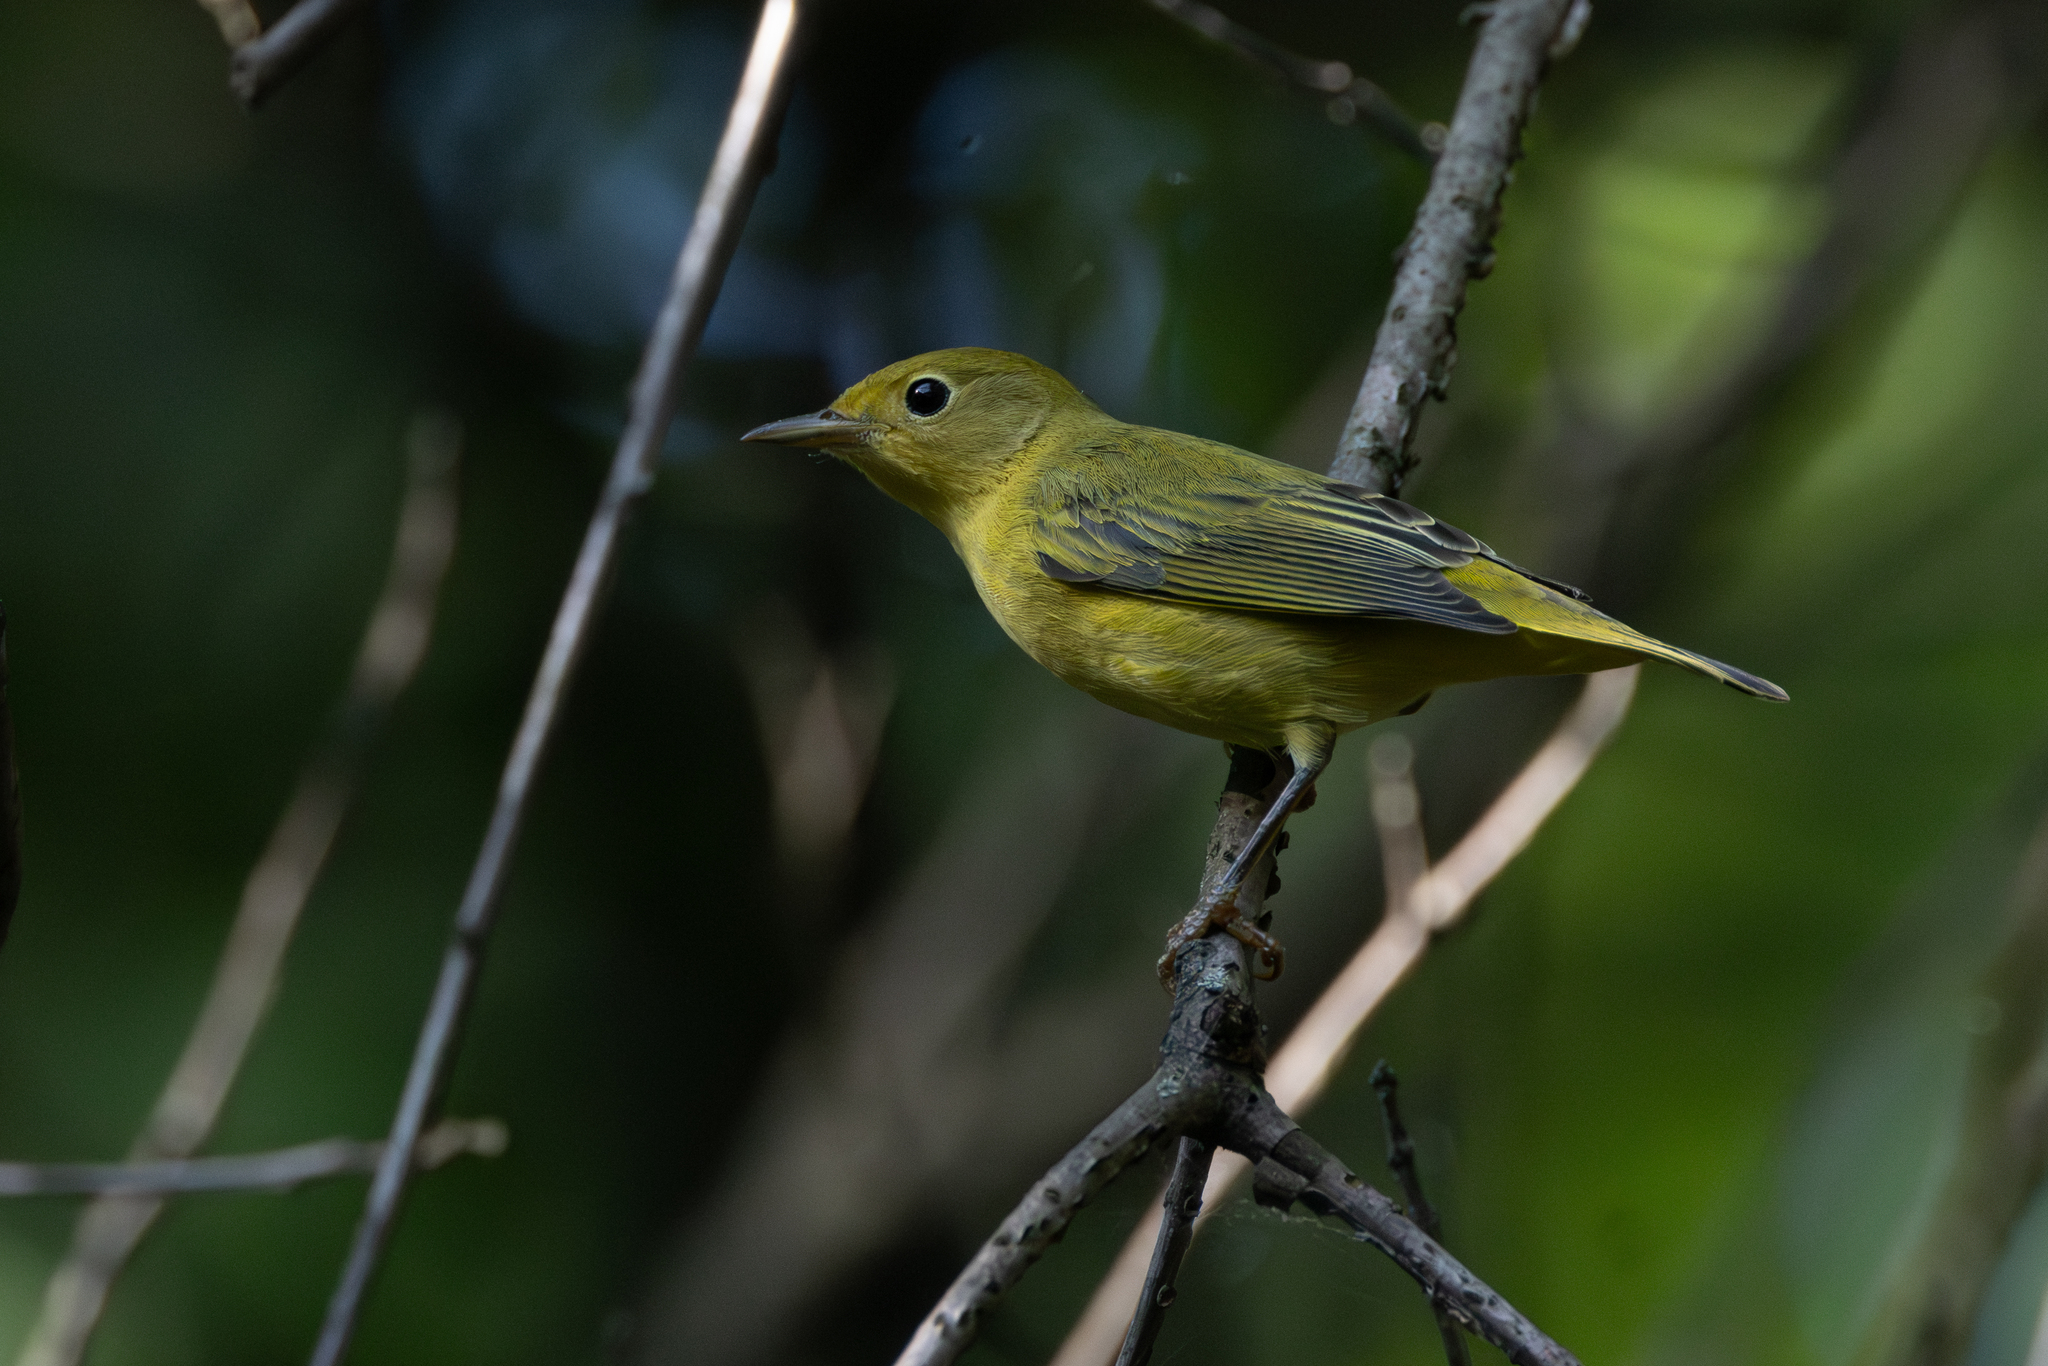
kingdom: Animalia
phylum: Chordata
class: Aves
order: Passeriformes
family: Parulidae
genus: Setophaga
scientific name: Setophaga petechia
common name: Yellow warbler
